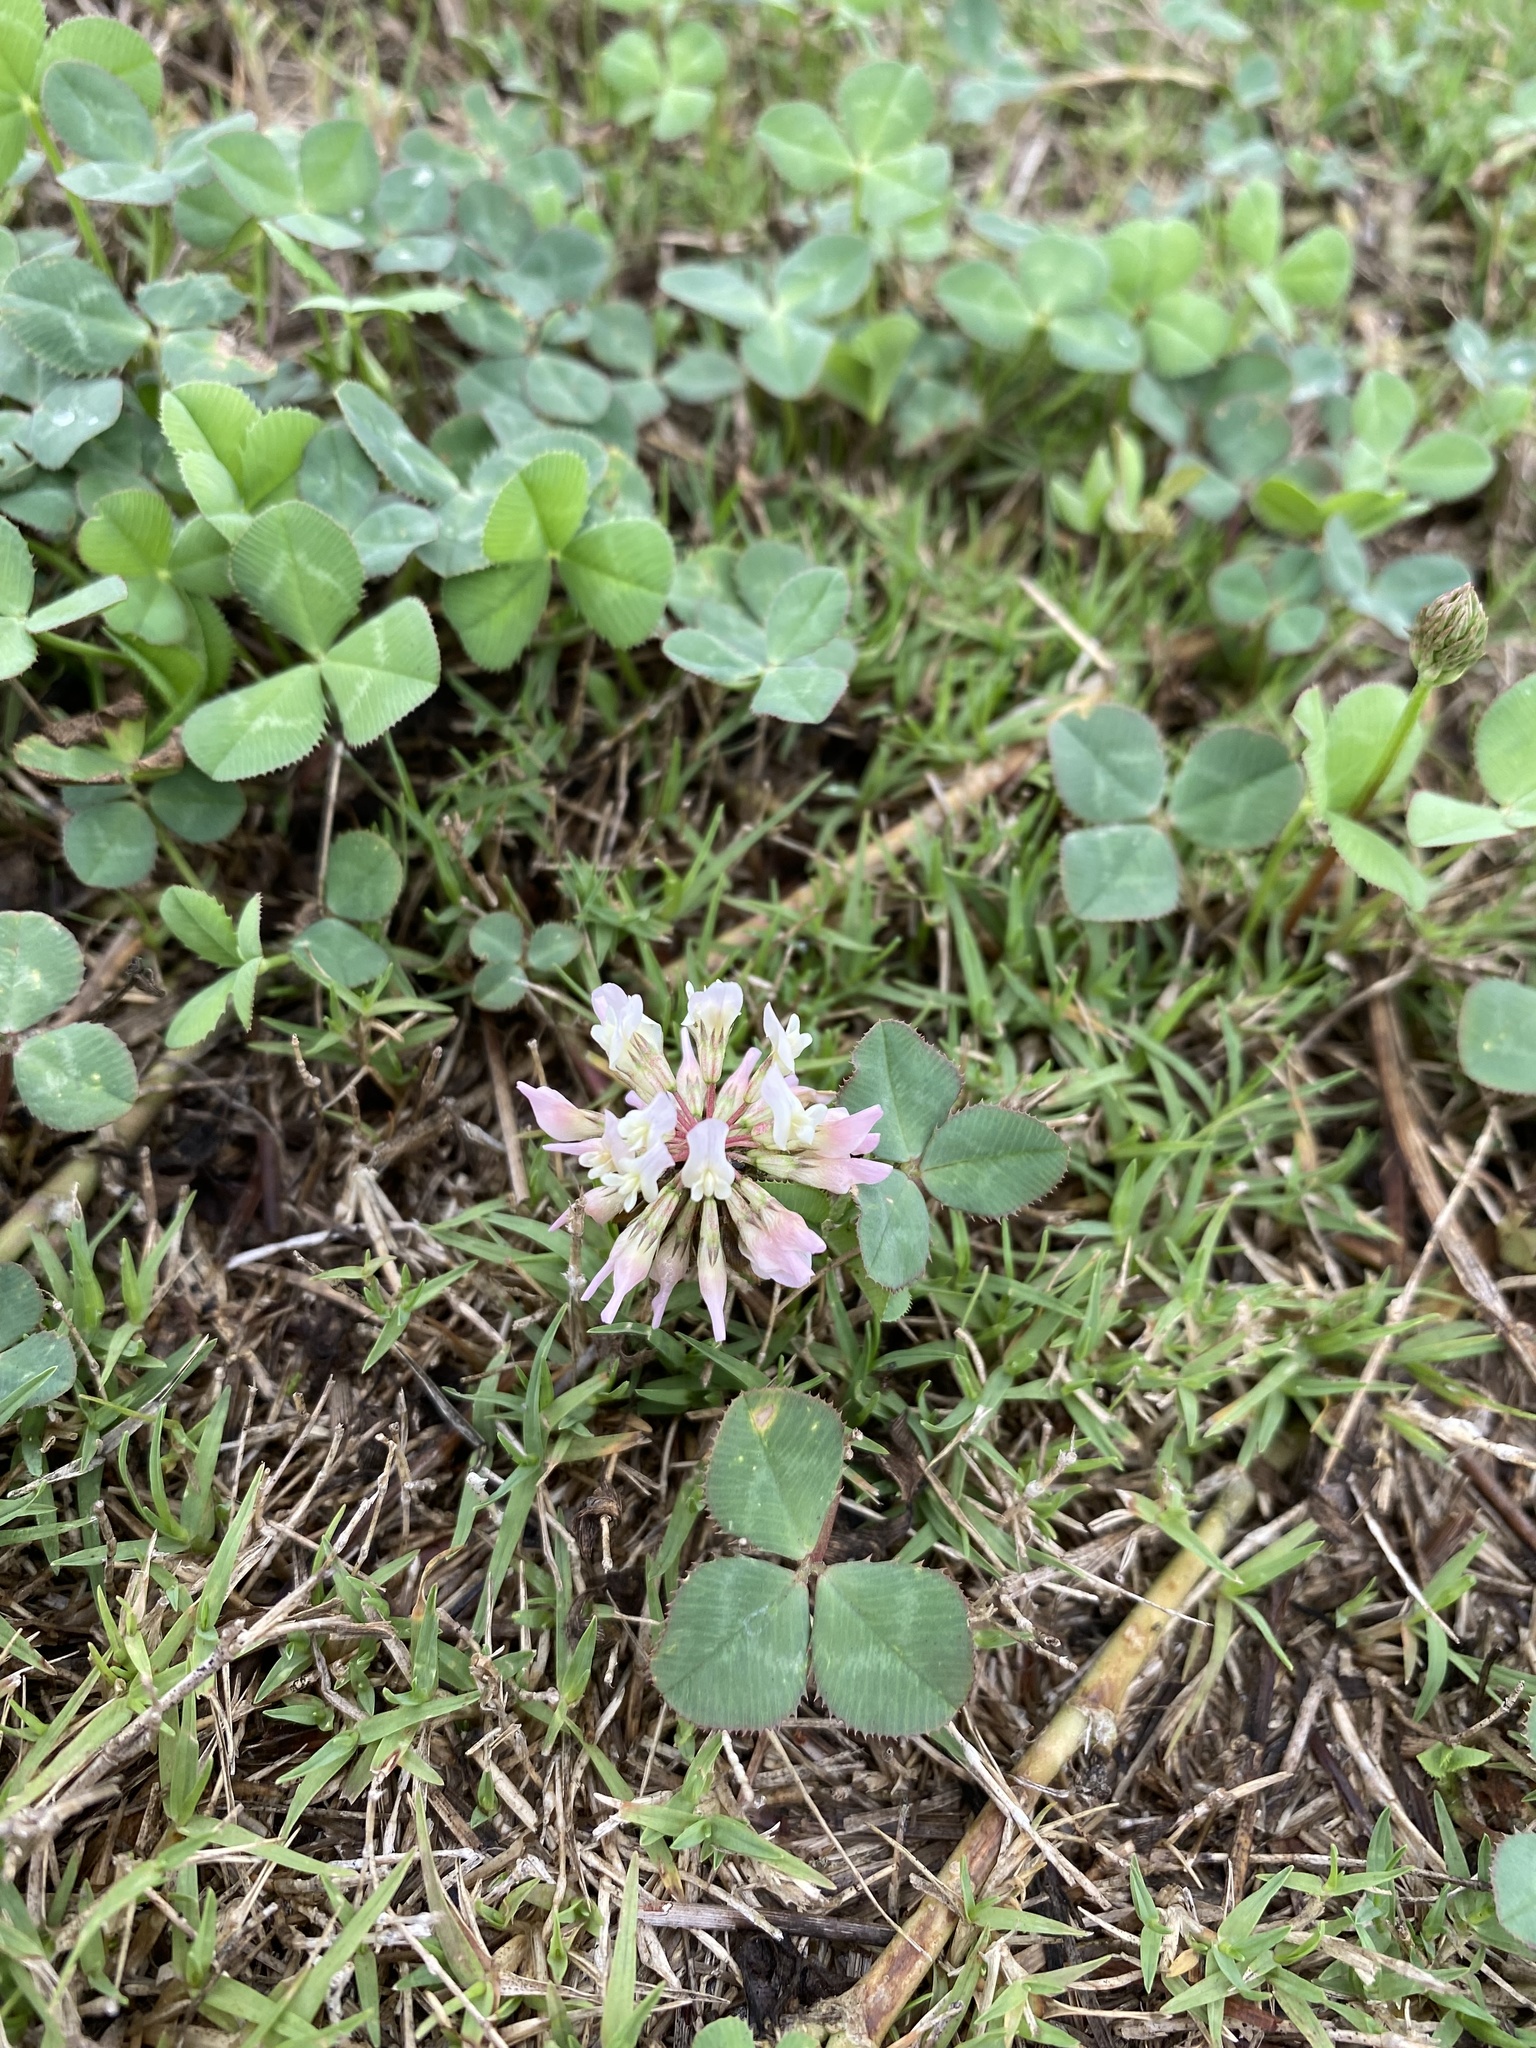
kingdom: Plantae
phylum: Tracheophyta
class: Magnoliopsida
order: Fabales
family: Fabaceae
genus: Trifolium
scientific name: Trifolium repens
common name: White clover
